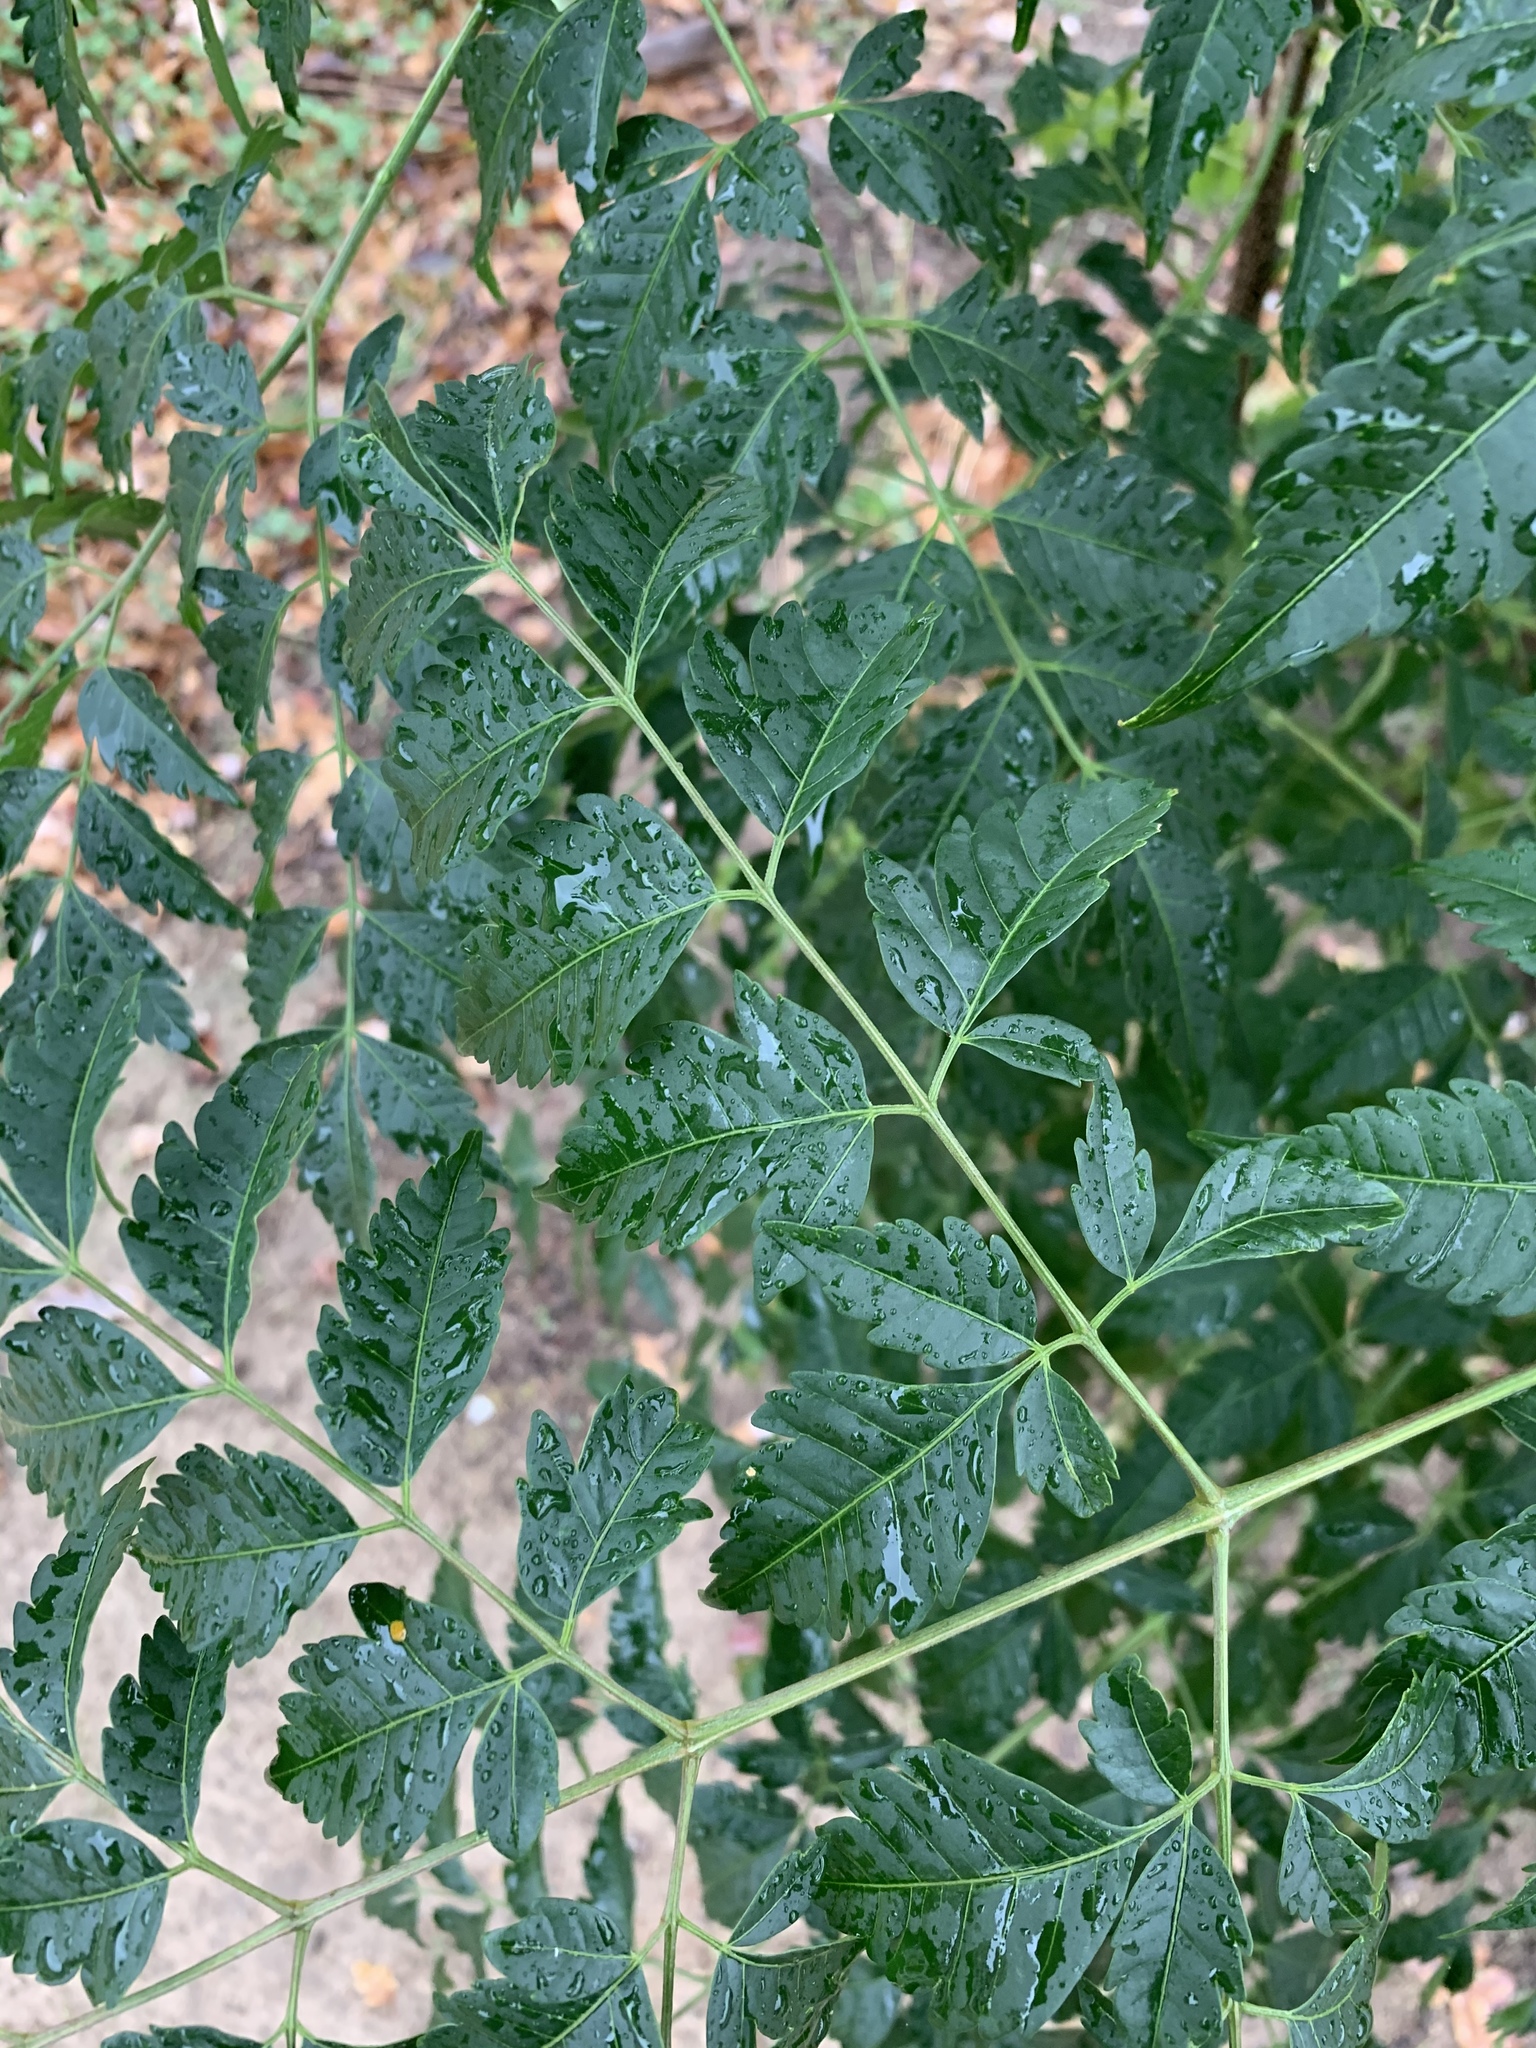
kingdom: Plantae
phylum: Tracheophyta
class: Magnoliopsida
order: Sapindales
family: Meliaceae
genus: Melia
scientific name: Melia azedarach
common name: Chinaberrytree
